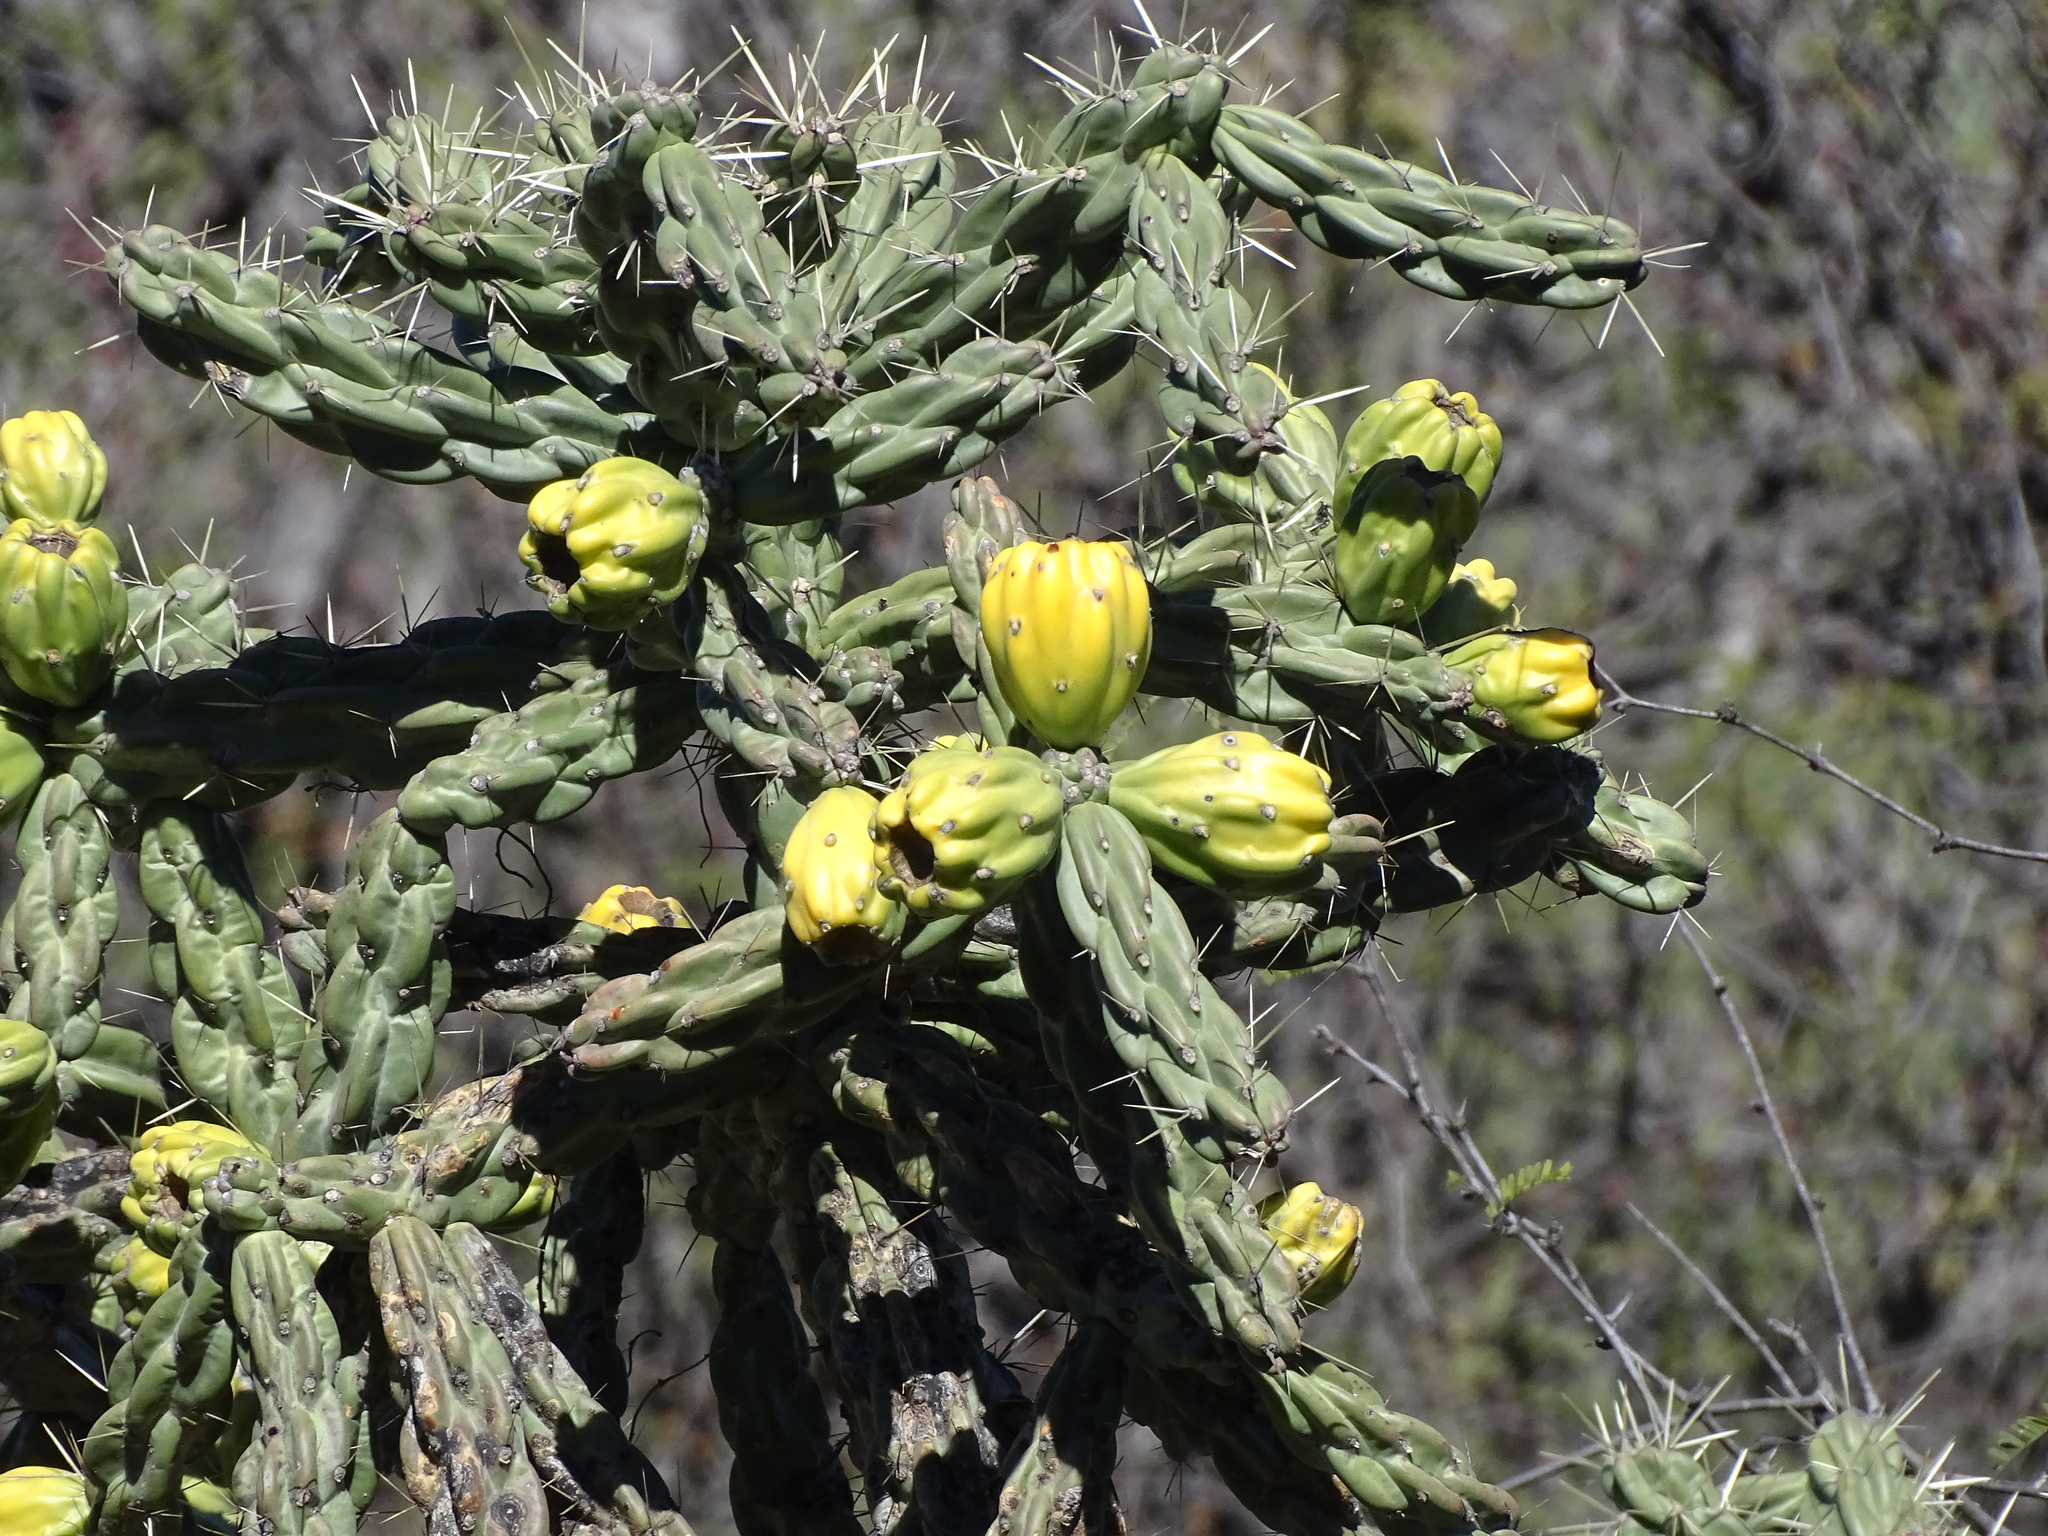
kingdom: Plantae
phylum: Tracheophyta
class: Magnoliopsida
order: Caryophyllales
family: Cactaceae
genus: Cylindropuntia
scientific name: Cylindropuntia imbricata
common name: Candelabrum cactus
